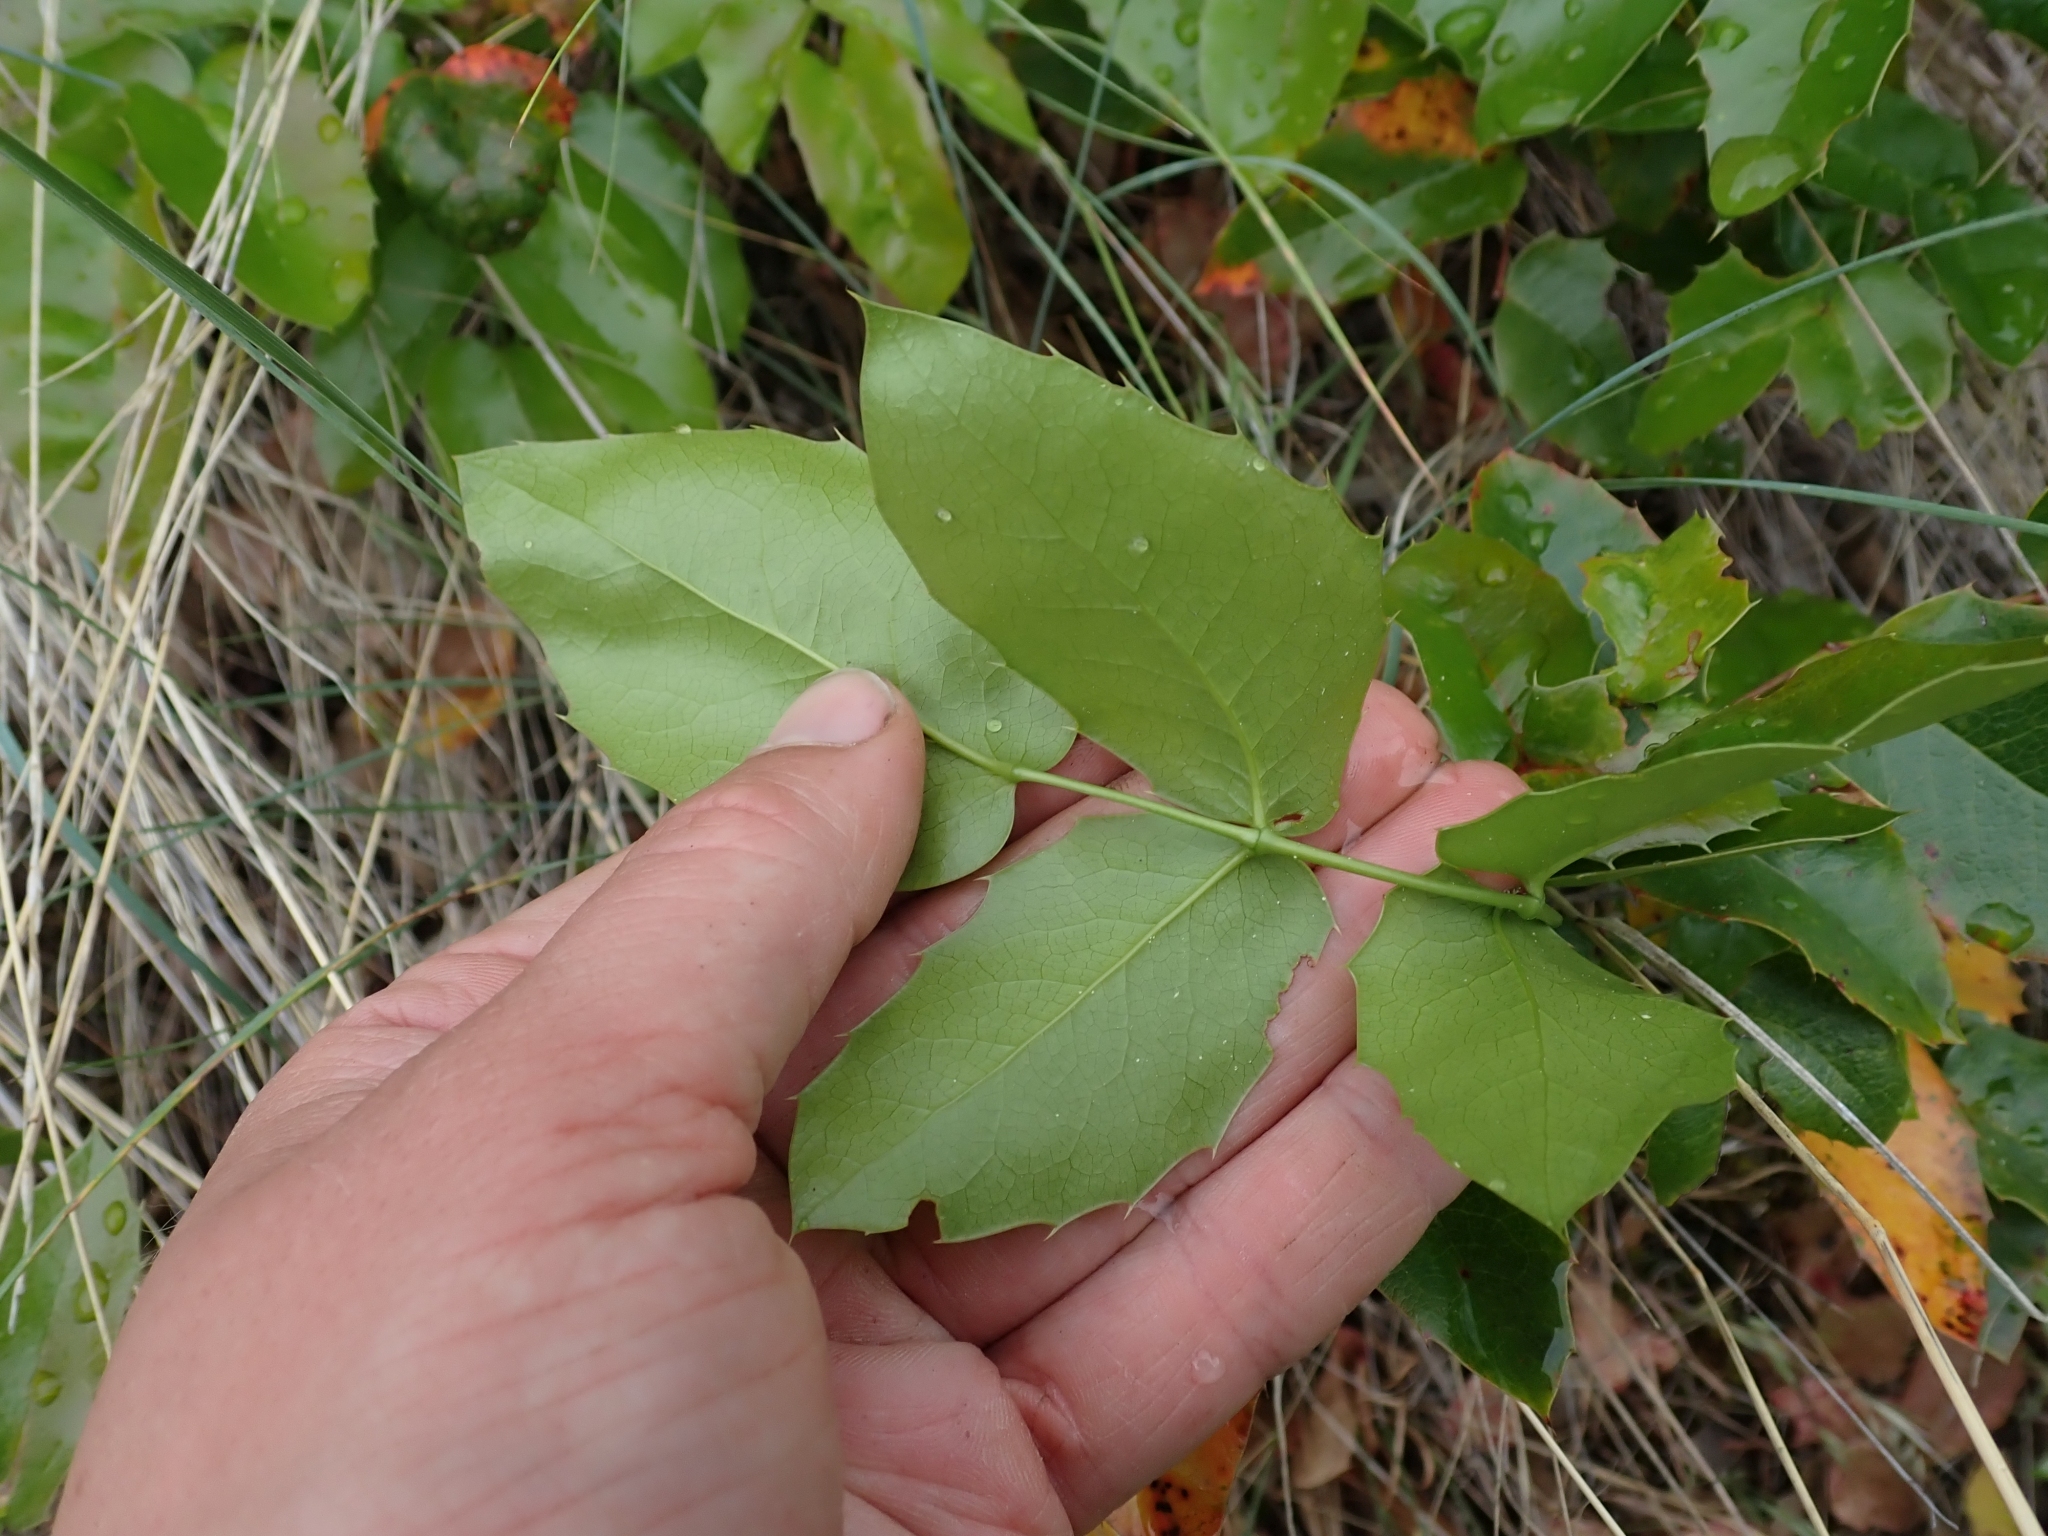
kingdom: Plantae
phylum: Tracheophyta
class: Magnoliopsida
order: Ranunculales
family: Berberidaceae
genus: Mahonia
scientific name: Mahonia aquifolium
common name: Oregon-grape
